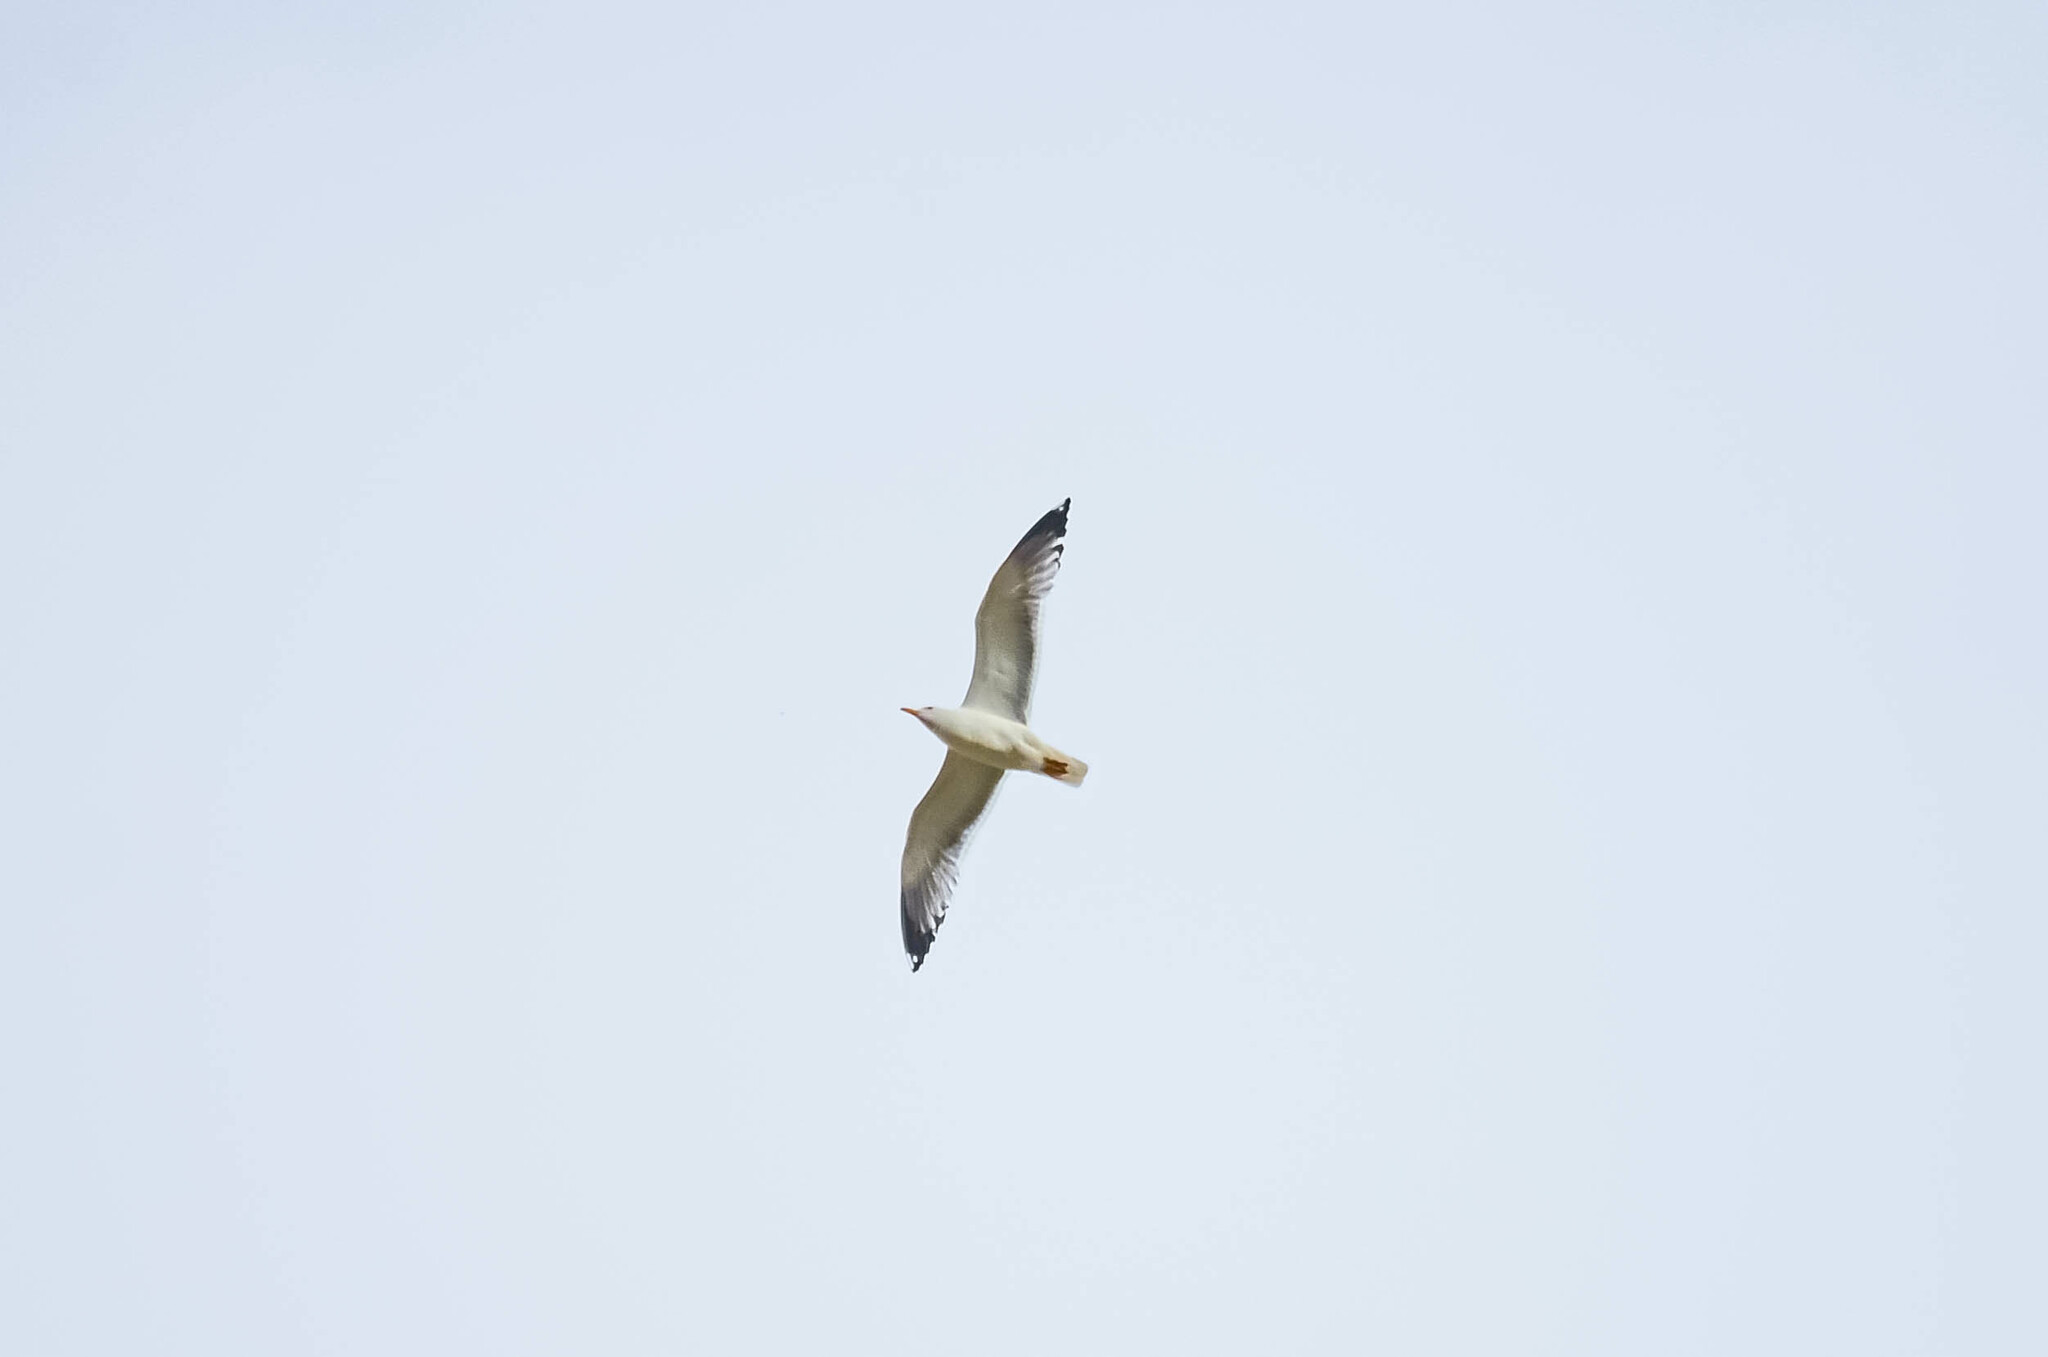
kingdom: Animalia
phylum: Chordata
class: Aves
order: Charadriiformes
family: Laridae
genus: Larus
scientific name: Larus canus
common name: Mew gull
